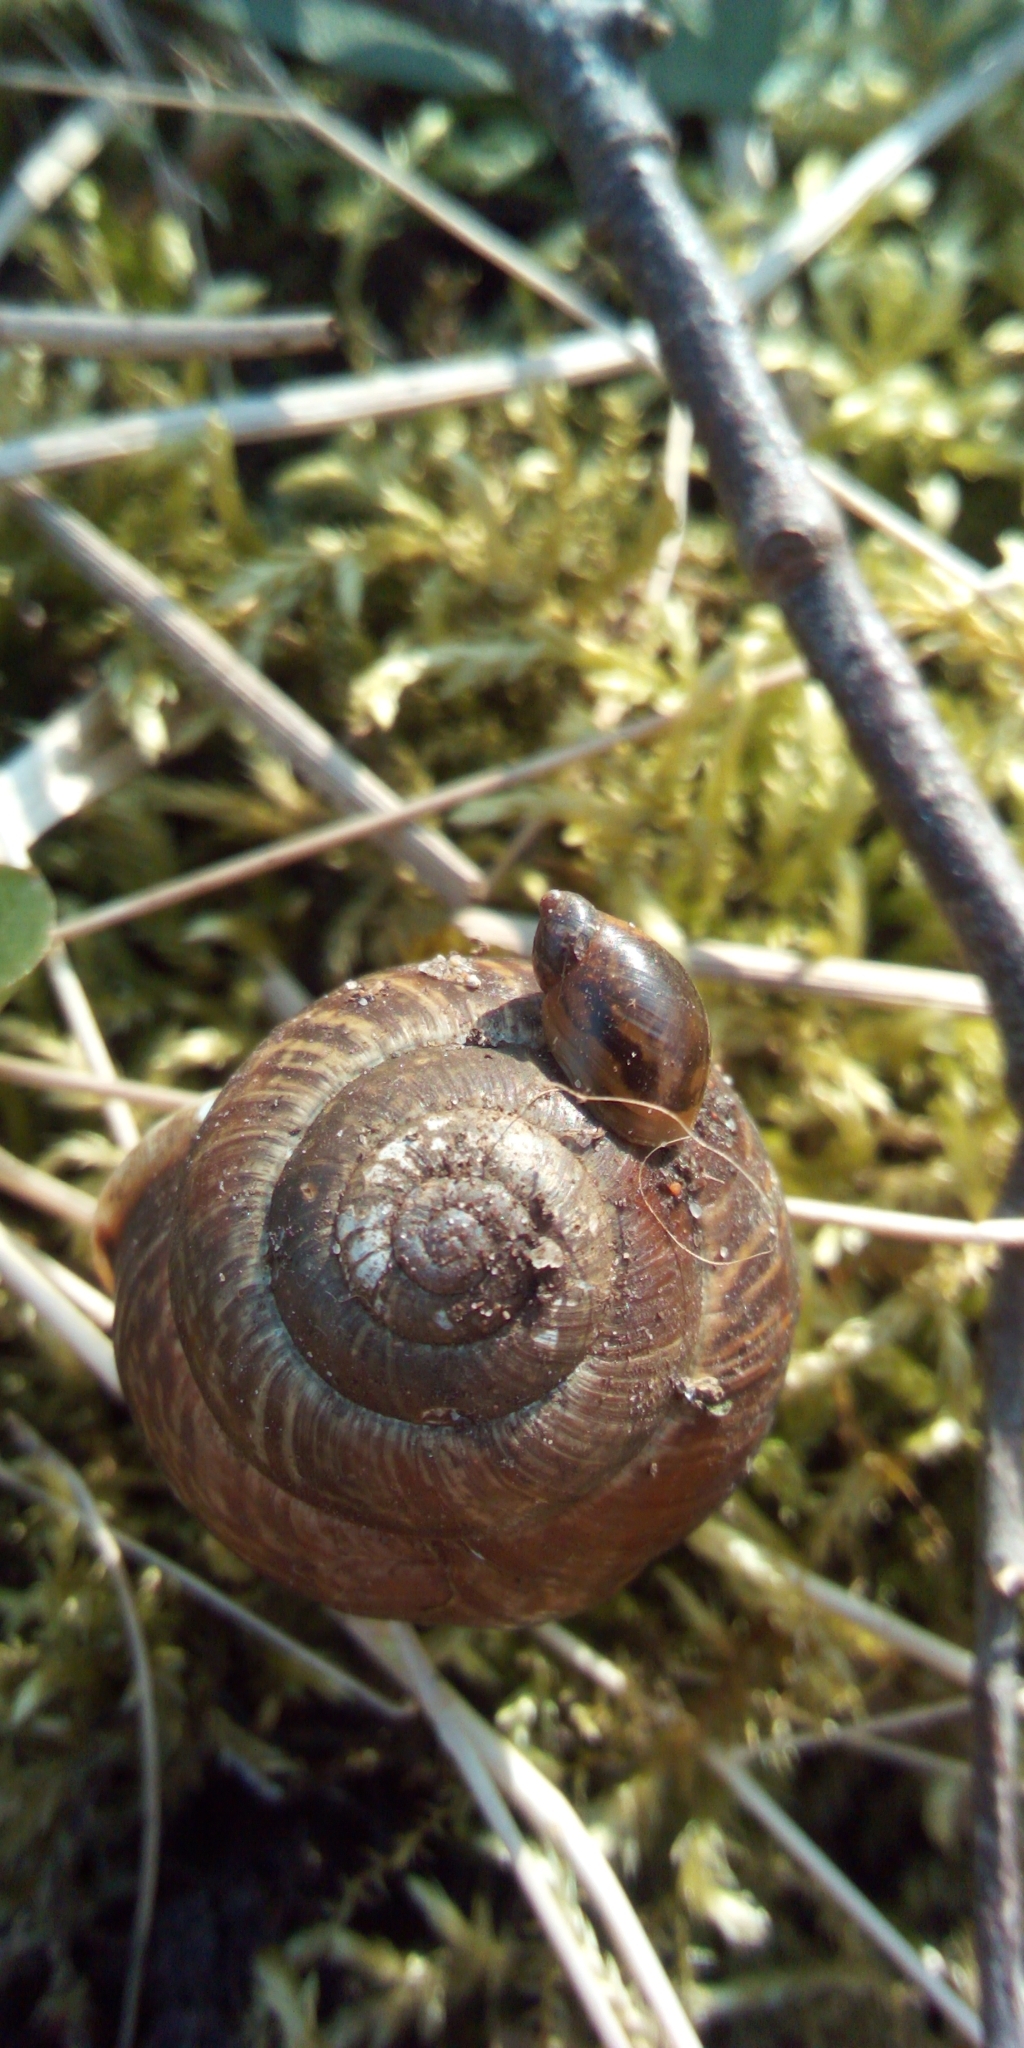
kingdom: Animalia
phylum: Mollusca
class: Gastropoda
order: Stylommatophora
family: Helicidae
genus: Arianta
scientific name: Arianta arbustorum
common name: Copse snail
